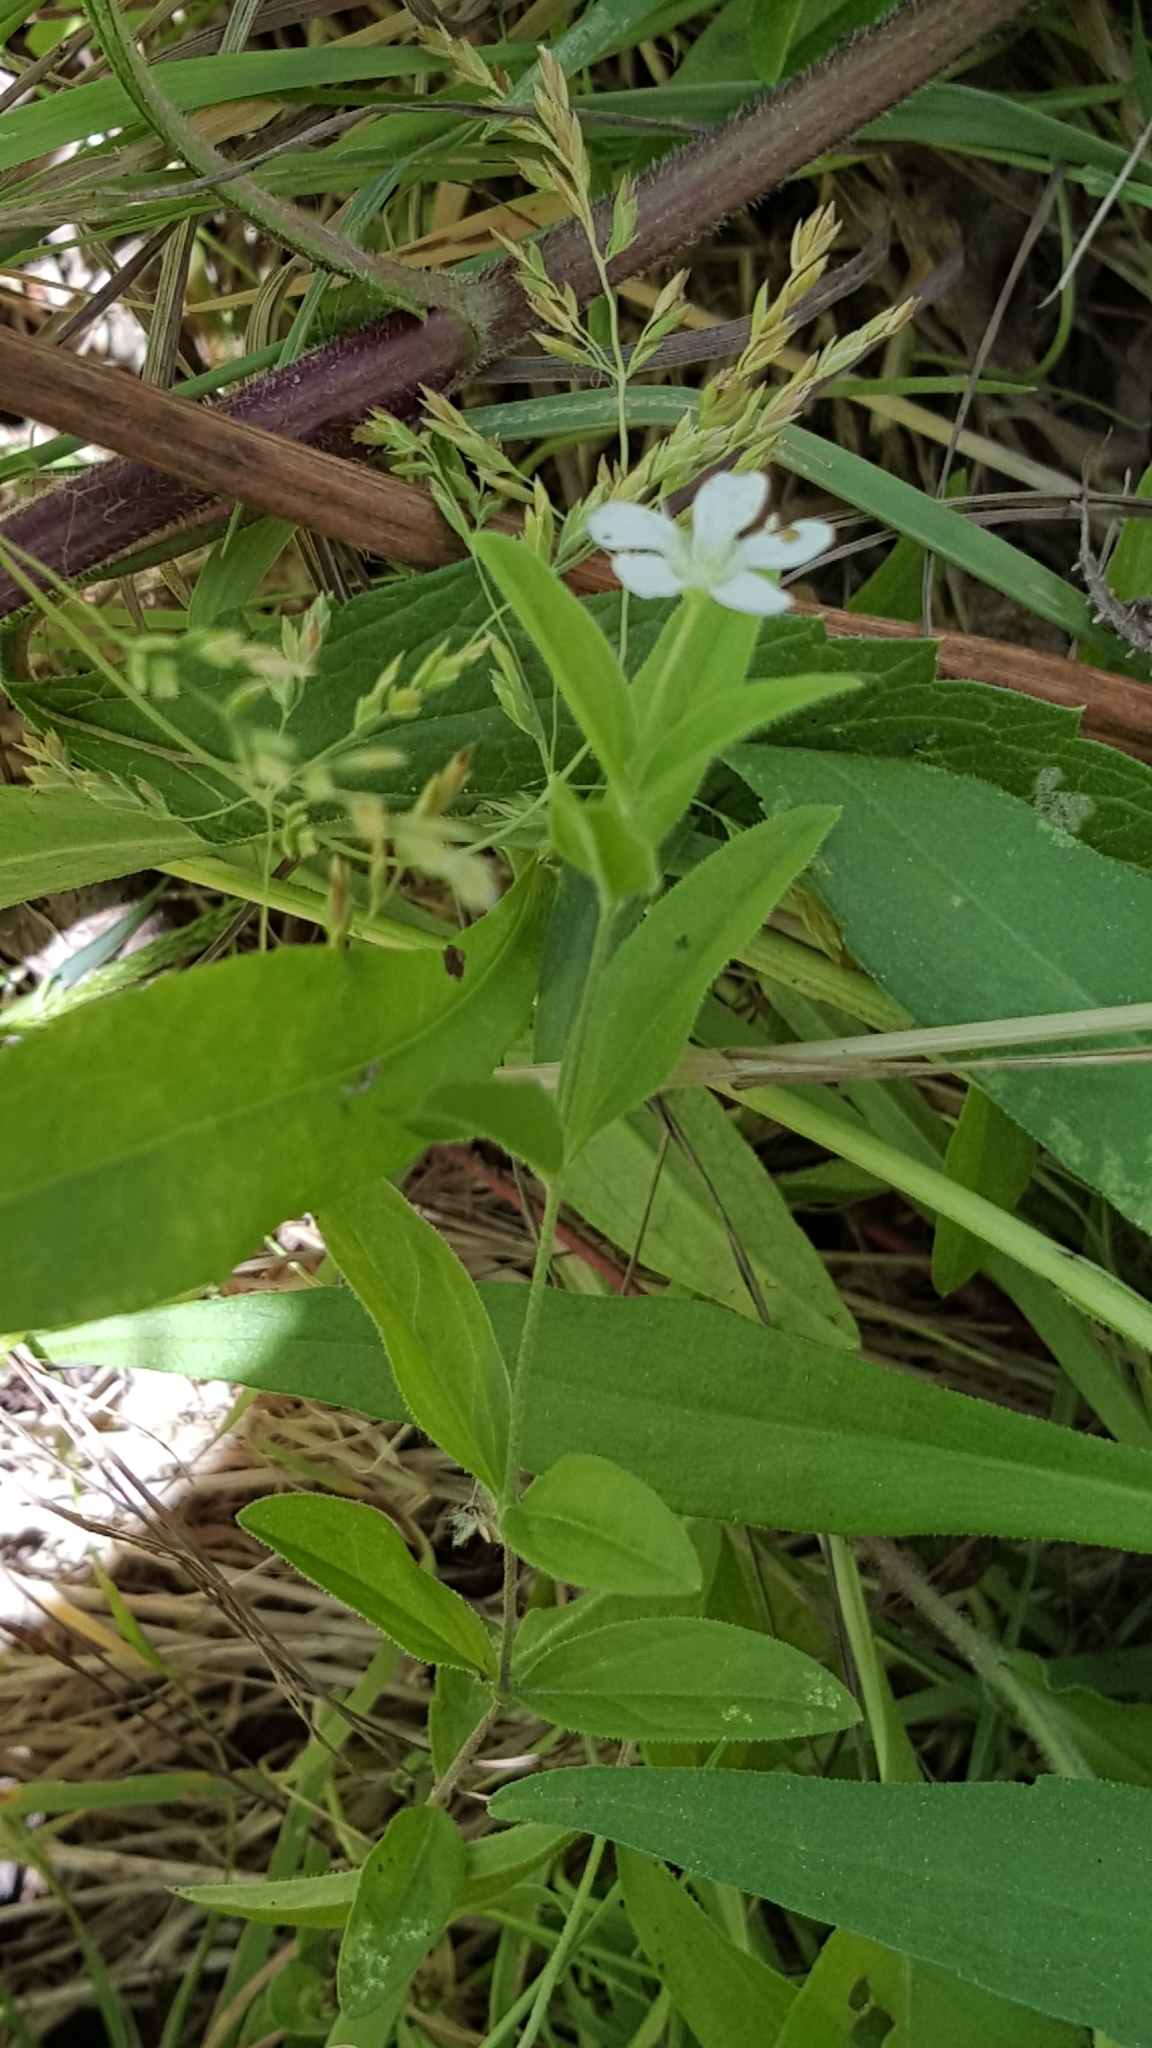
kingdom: Plantae
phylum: Tracheophyta
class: Magnoliopsida
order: Caryophyllales
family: Caryophyllaceae
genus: Moehringia
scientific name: Moehringia lateriflora
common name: Blunt-leaved sandwort
